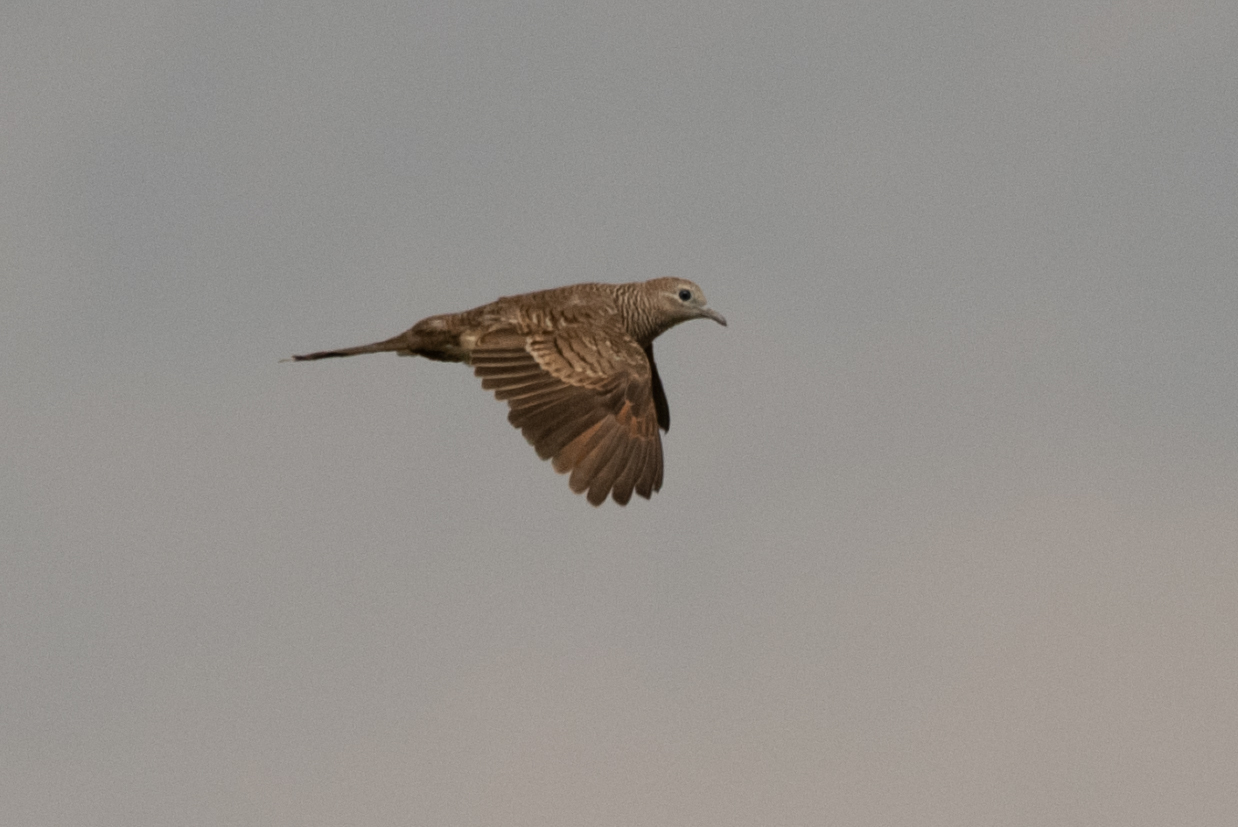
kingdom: Animalia
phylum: Chordata
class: Aves
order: Columbiformes
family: Columbidae
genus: Geopelia
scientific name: Geopelia striata
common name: Zebra dove
